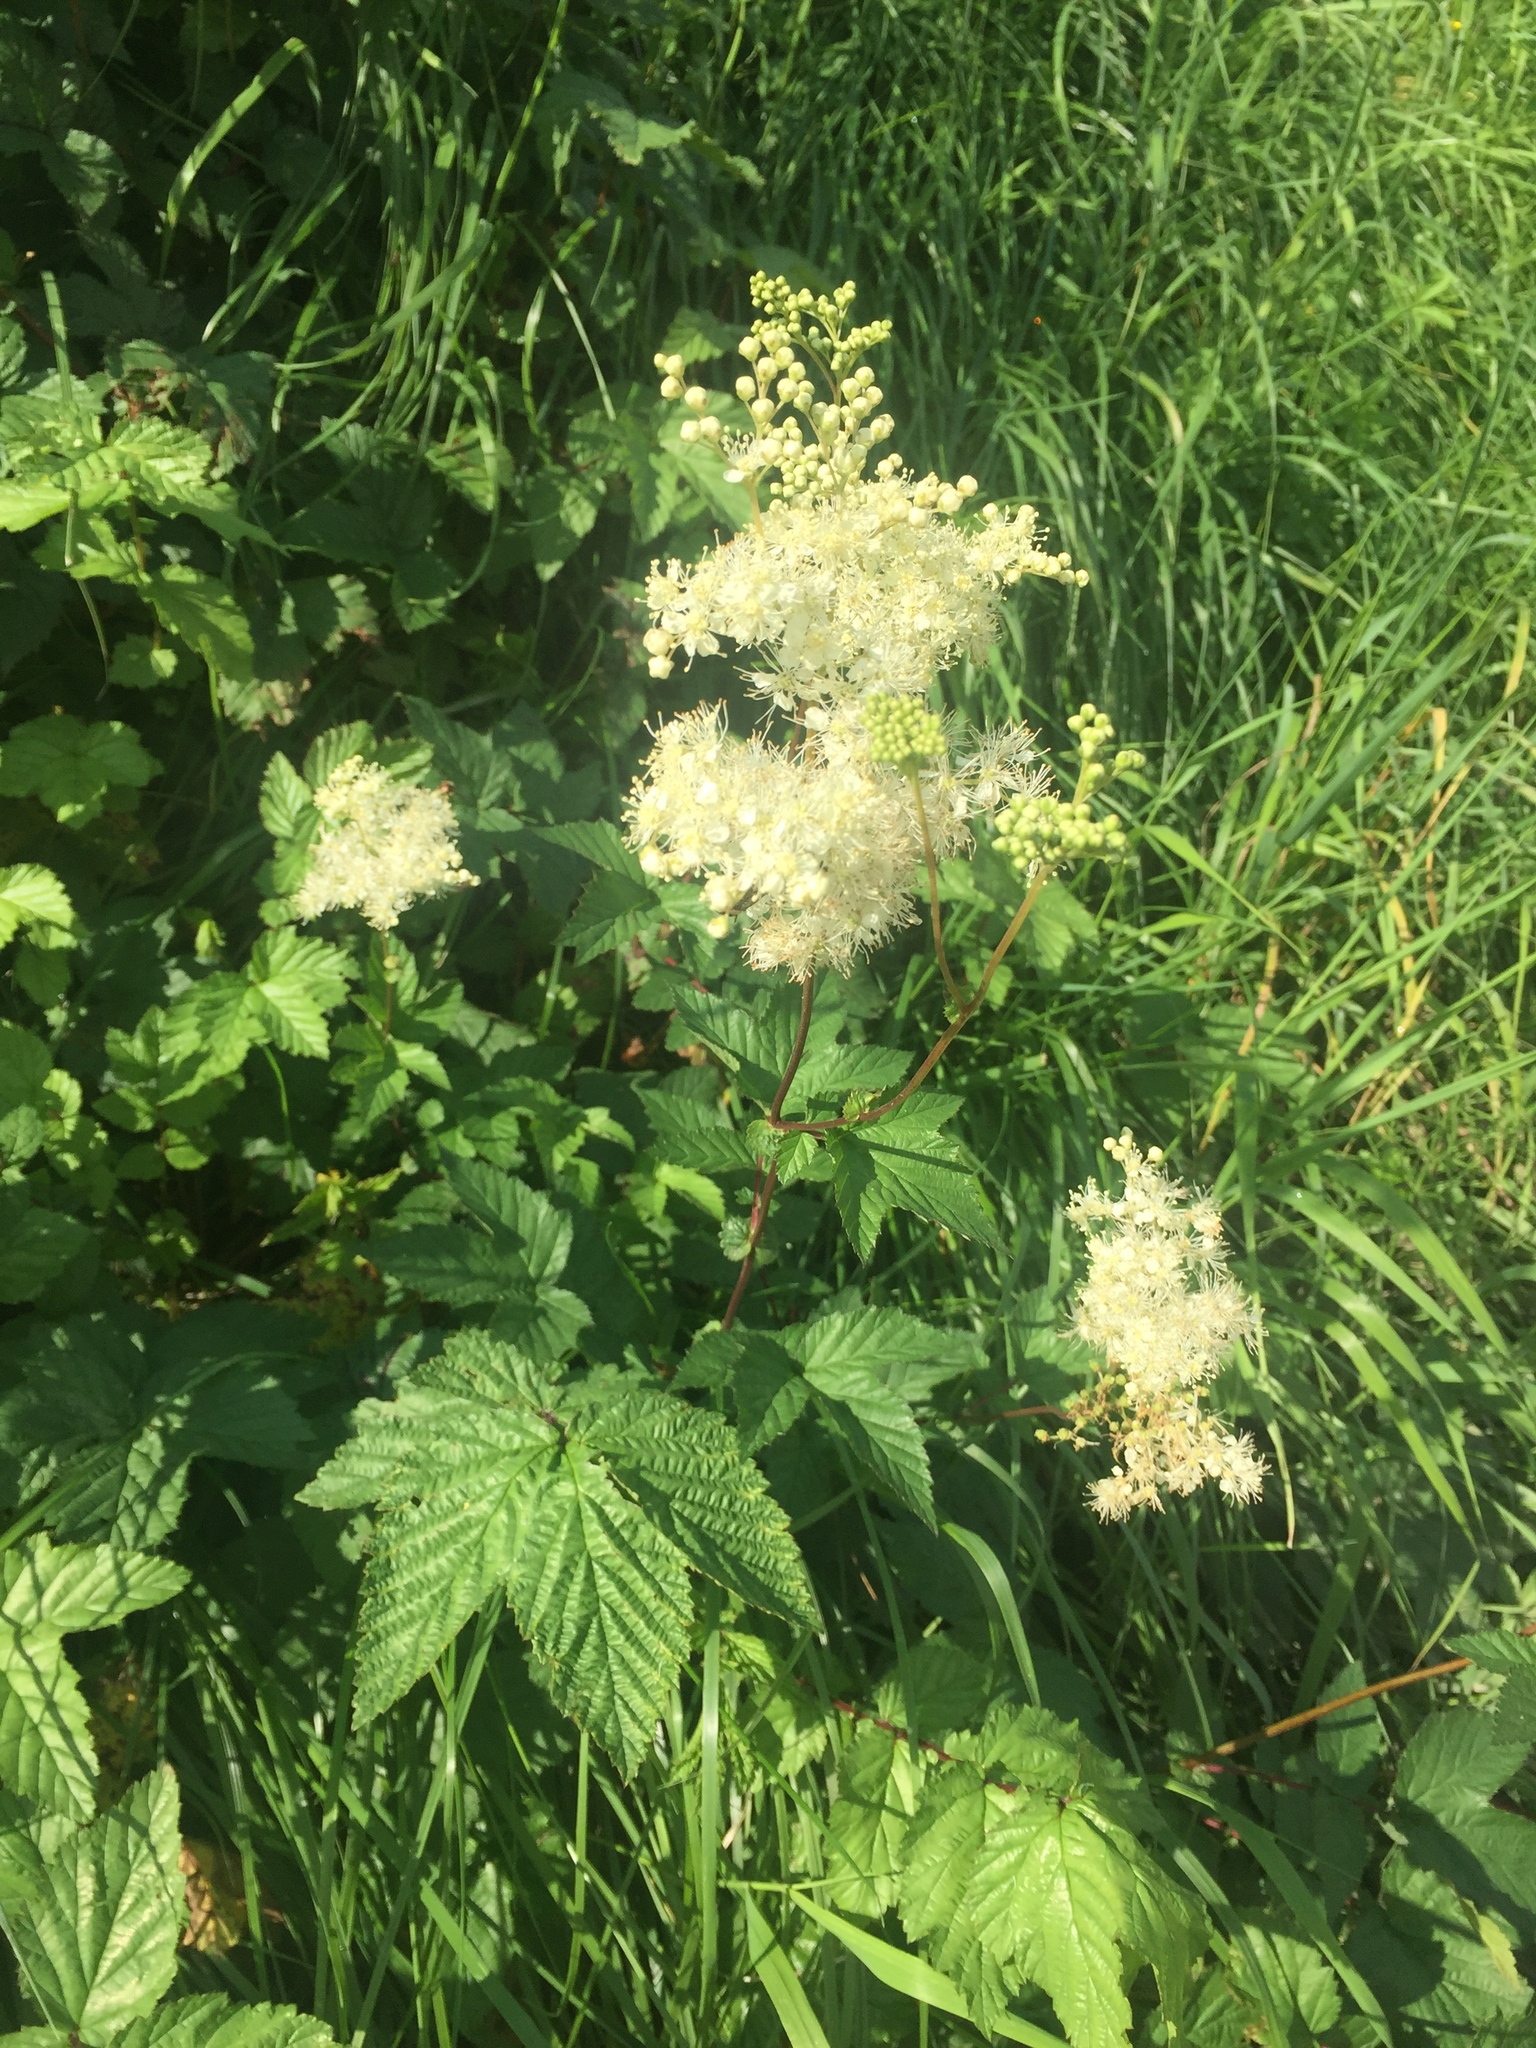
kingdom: Plantae
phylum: Tracheophyta
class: Magnoliopsida
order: Rosales
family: Rosaceae
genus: Filipendula
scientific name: Filipendula ulmaria
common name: Meadowsweet
